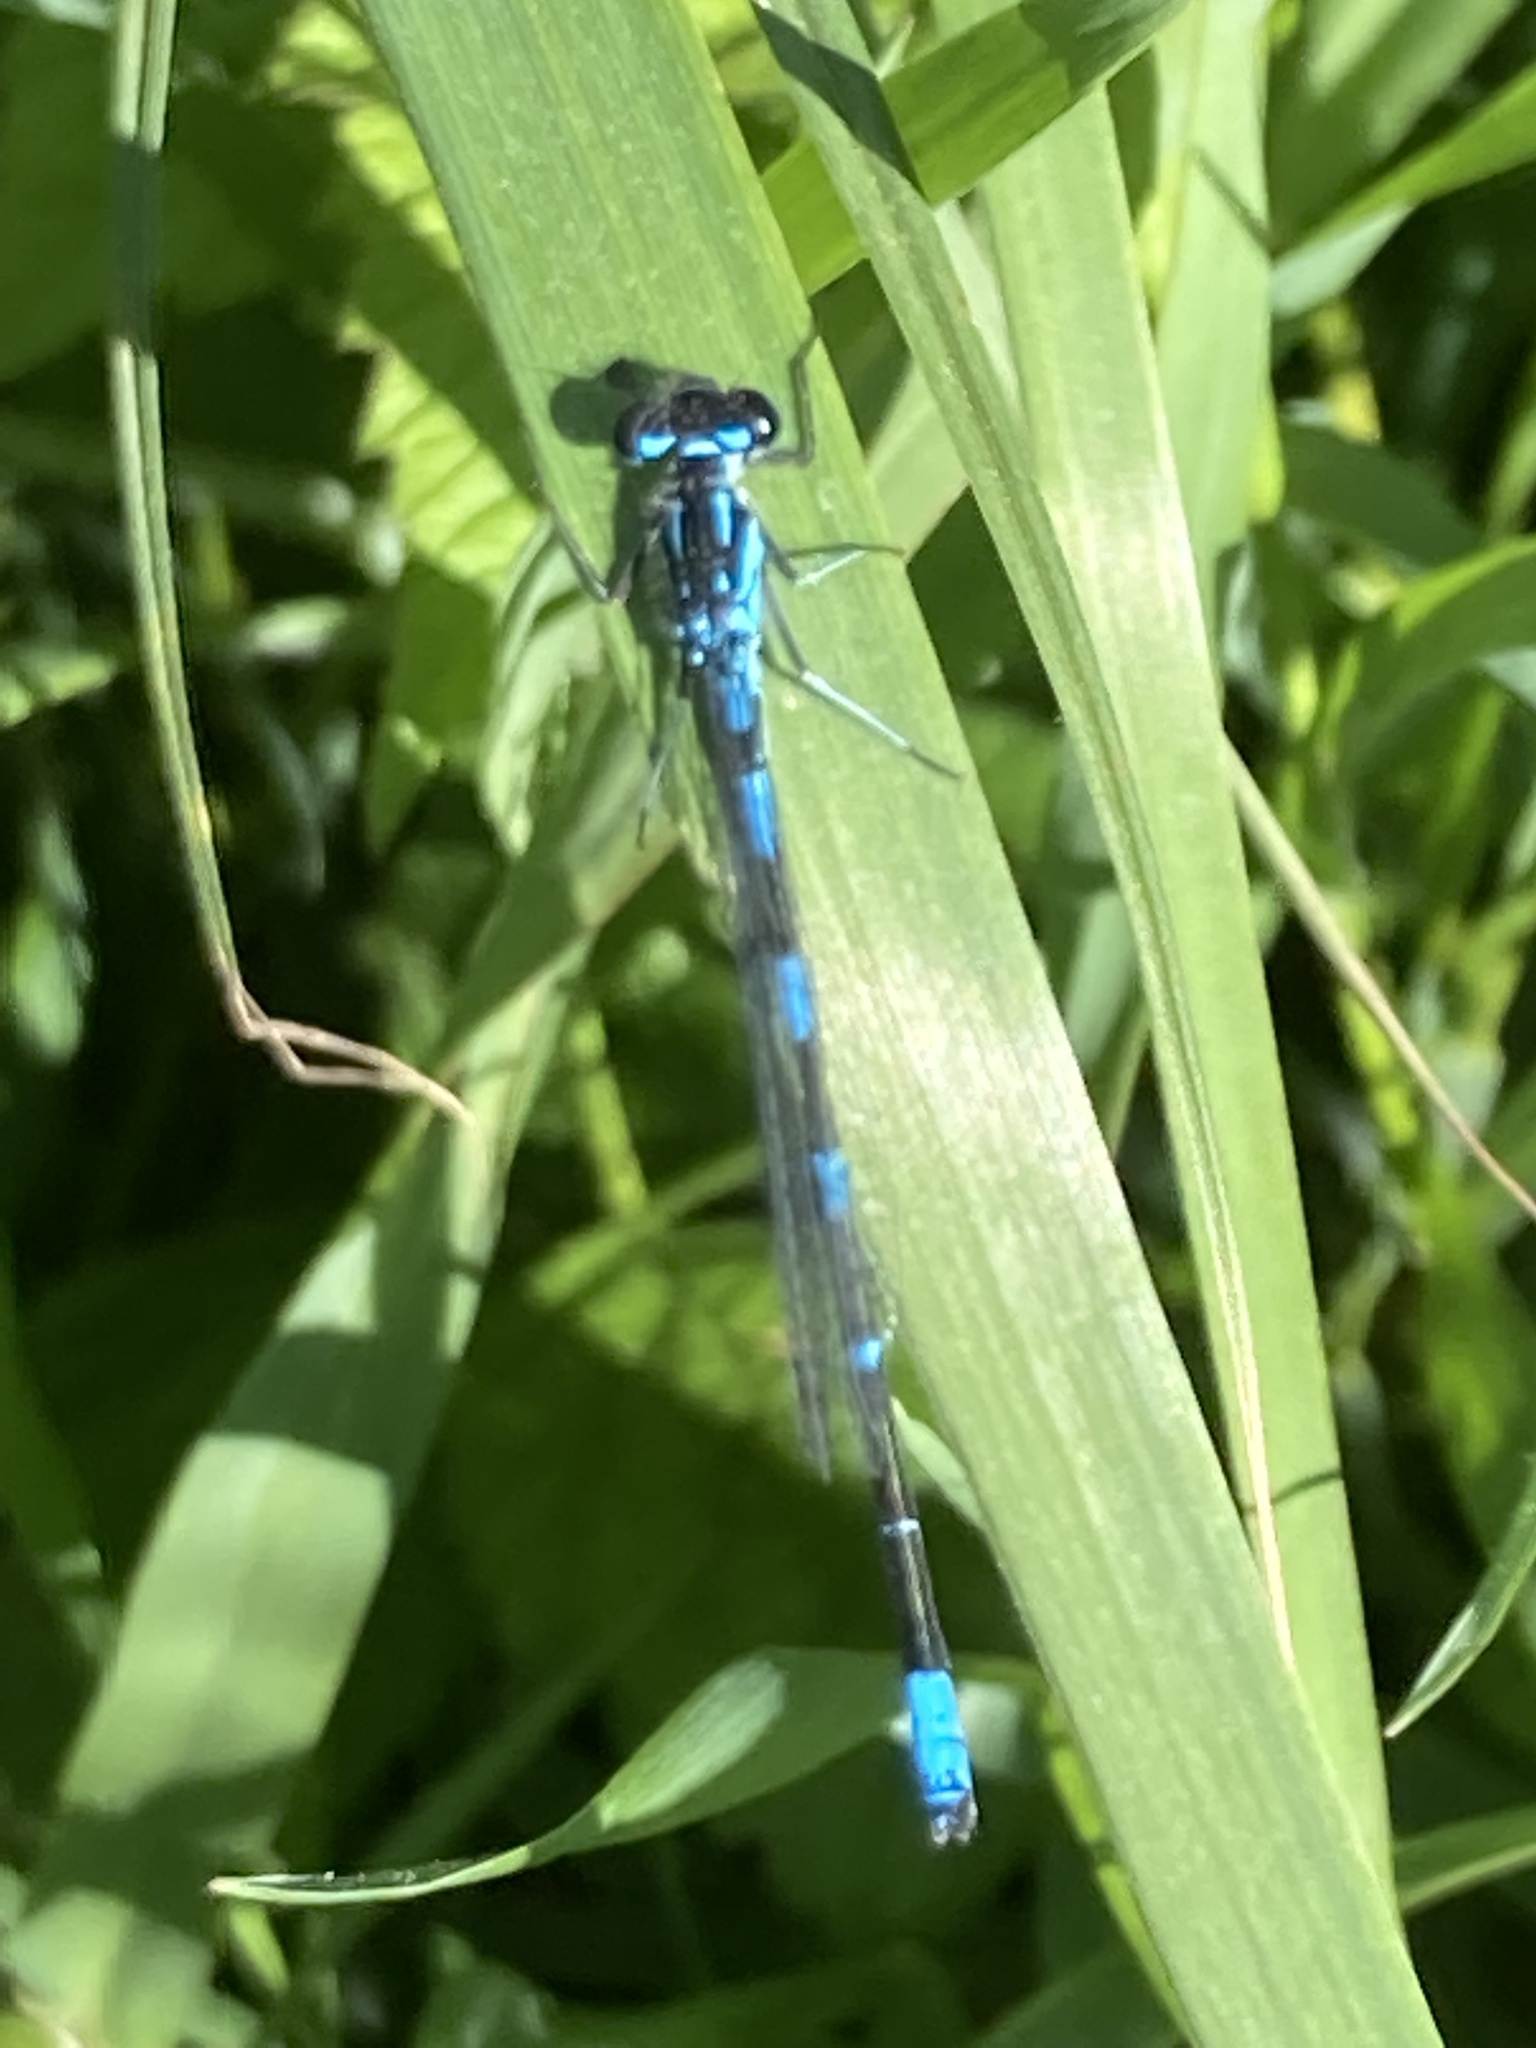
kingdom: Animalia
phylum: Arthropoda
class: Insecta
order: Odonata
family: Coenagrionidae
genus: Coenagrion
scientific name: Coenagrion pulchellum
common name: Variable bluet
